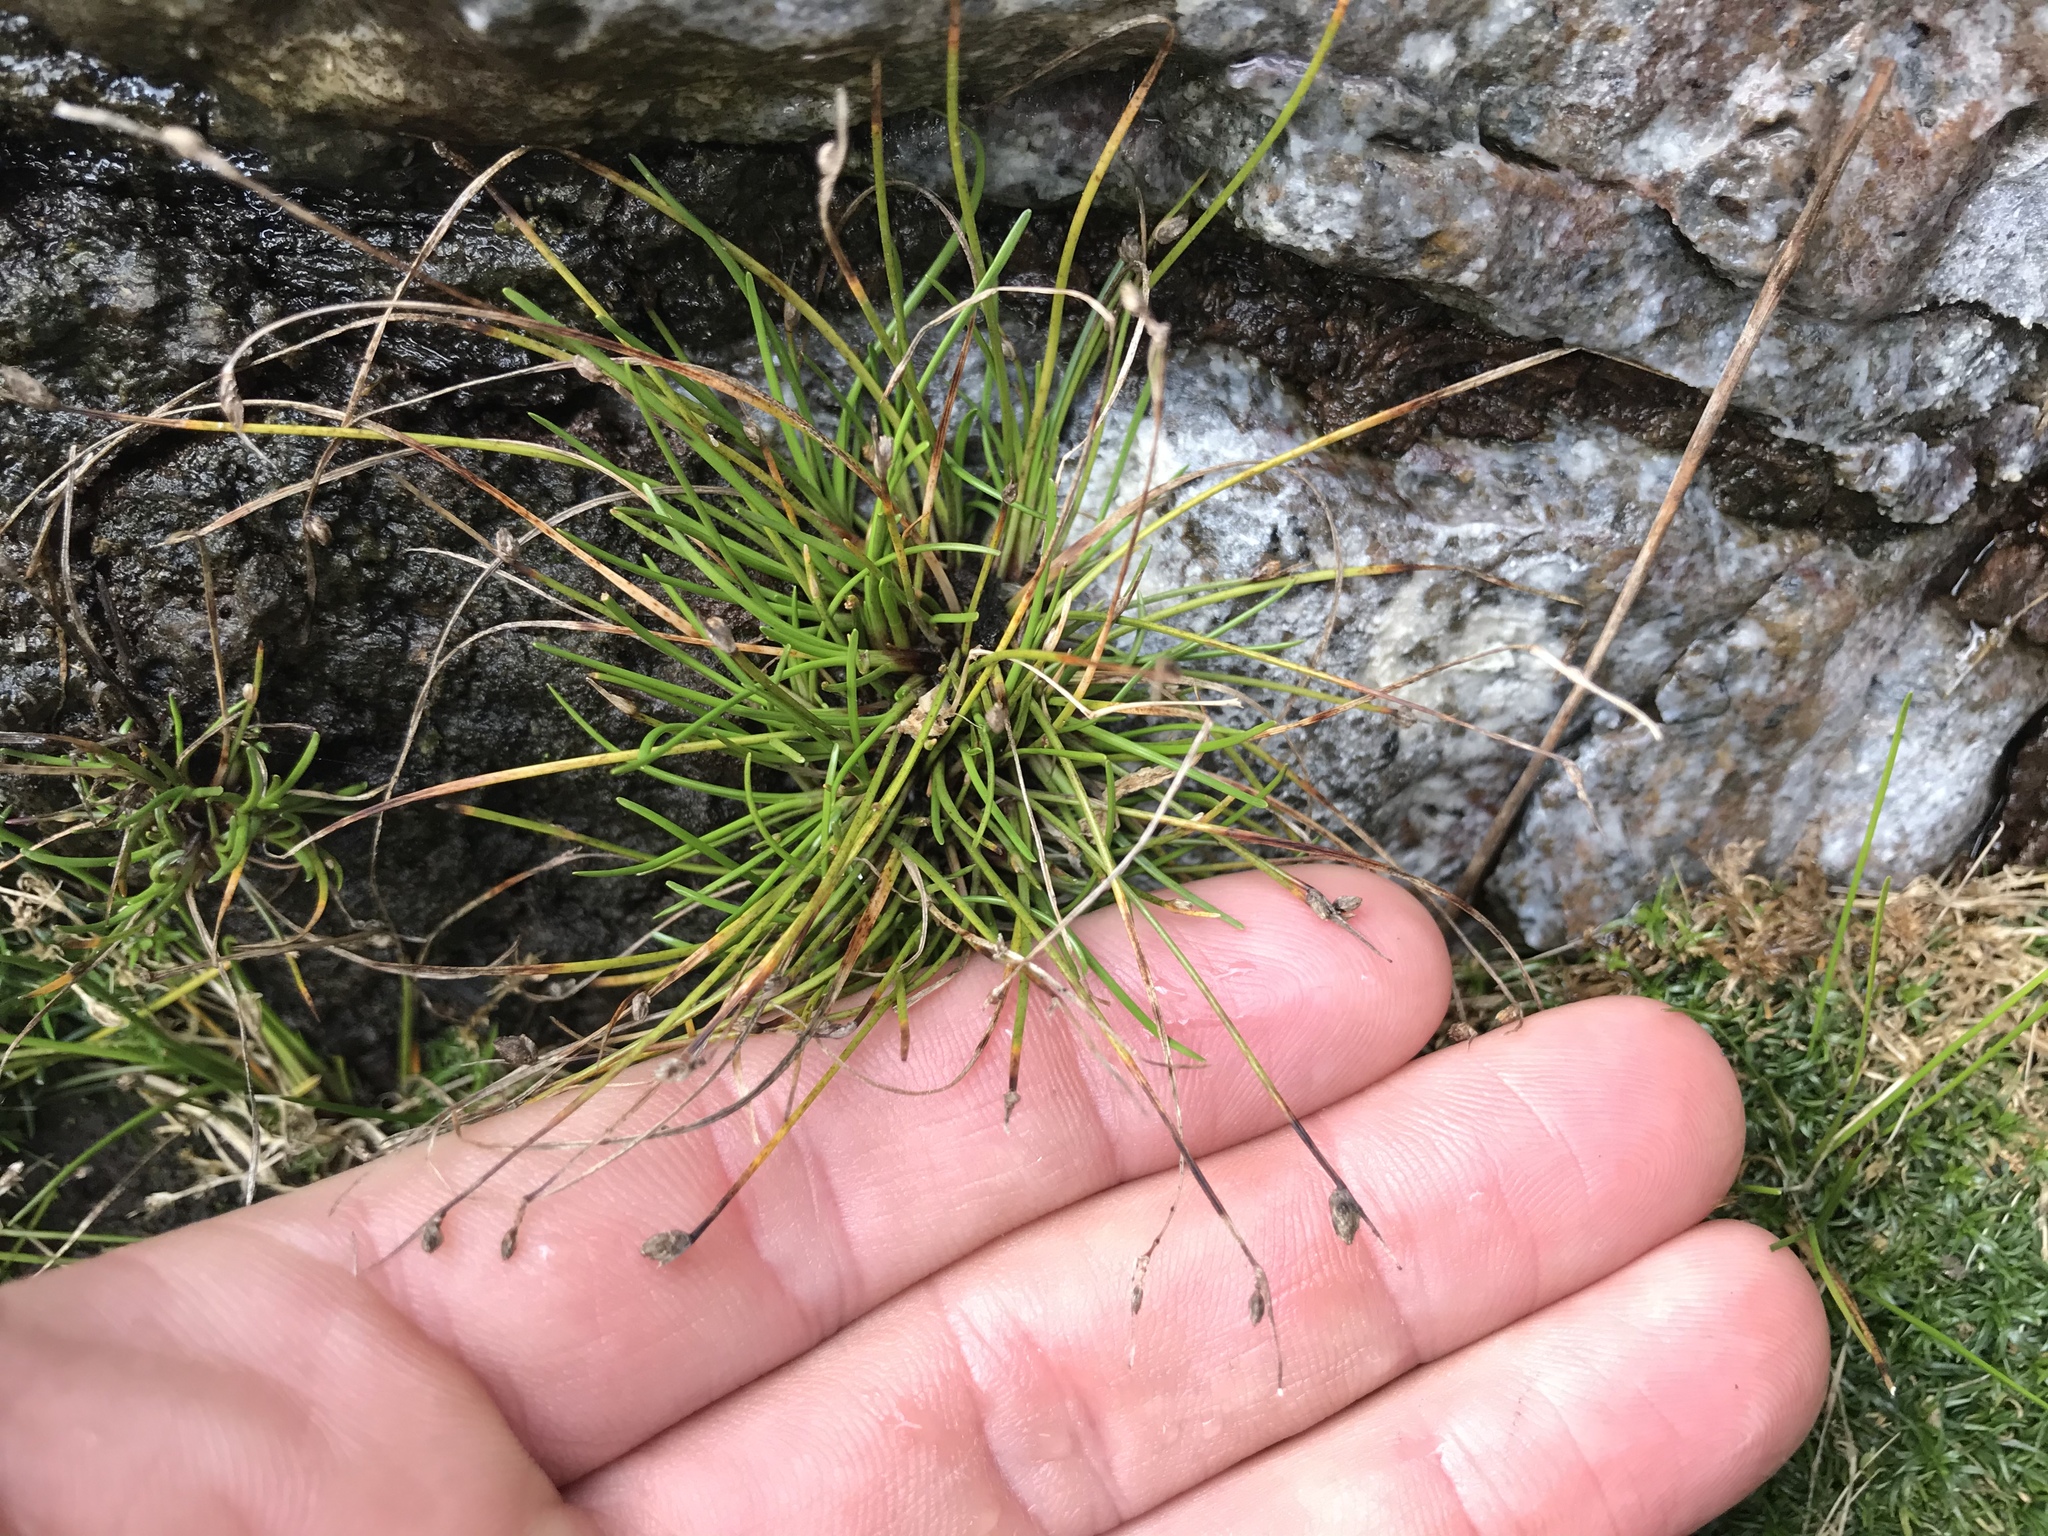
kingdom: Plantae
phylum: Tracheophyta
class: Liliopsida
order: Poales
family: Cyperaceae
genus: Isolepis
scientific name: Isolepis cernua
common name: Slender club-rush
